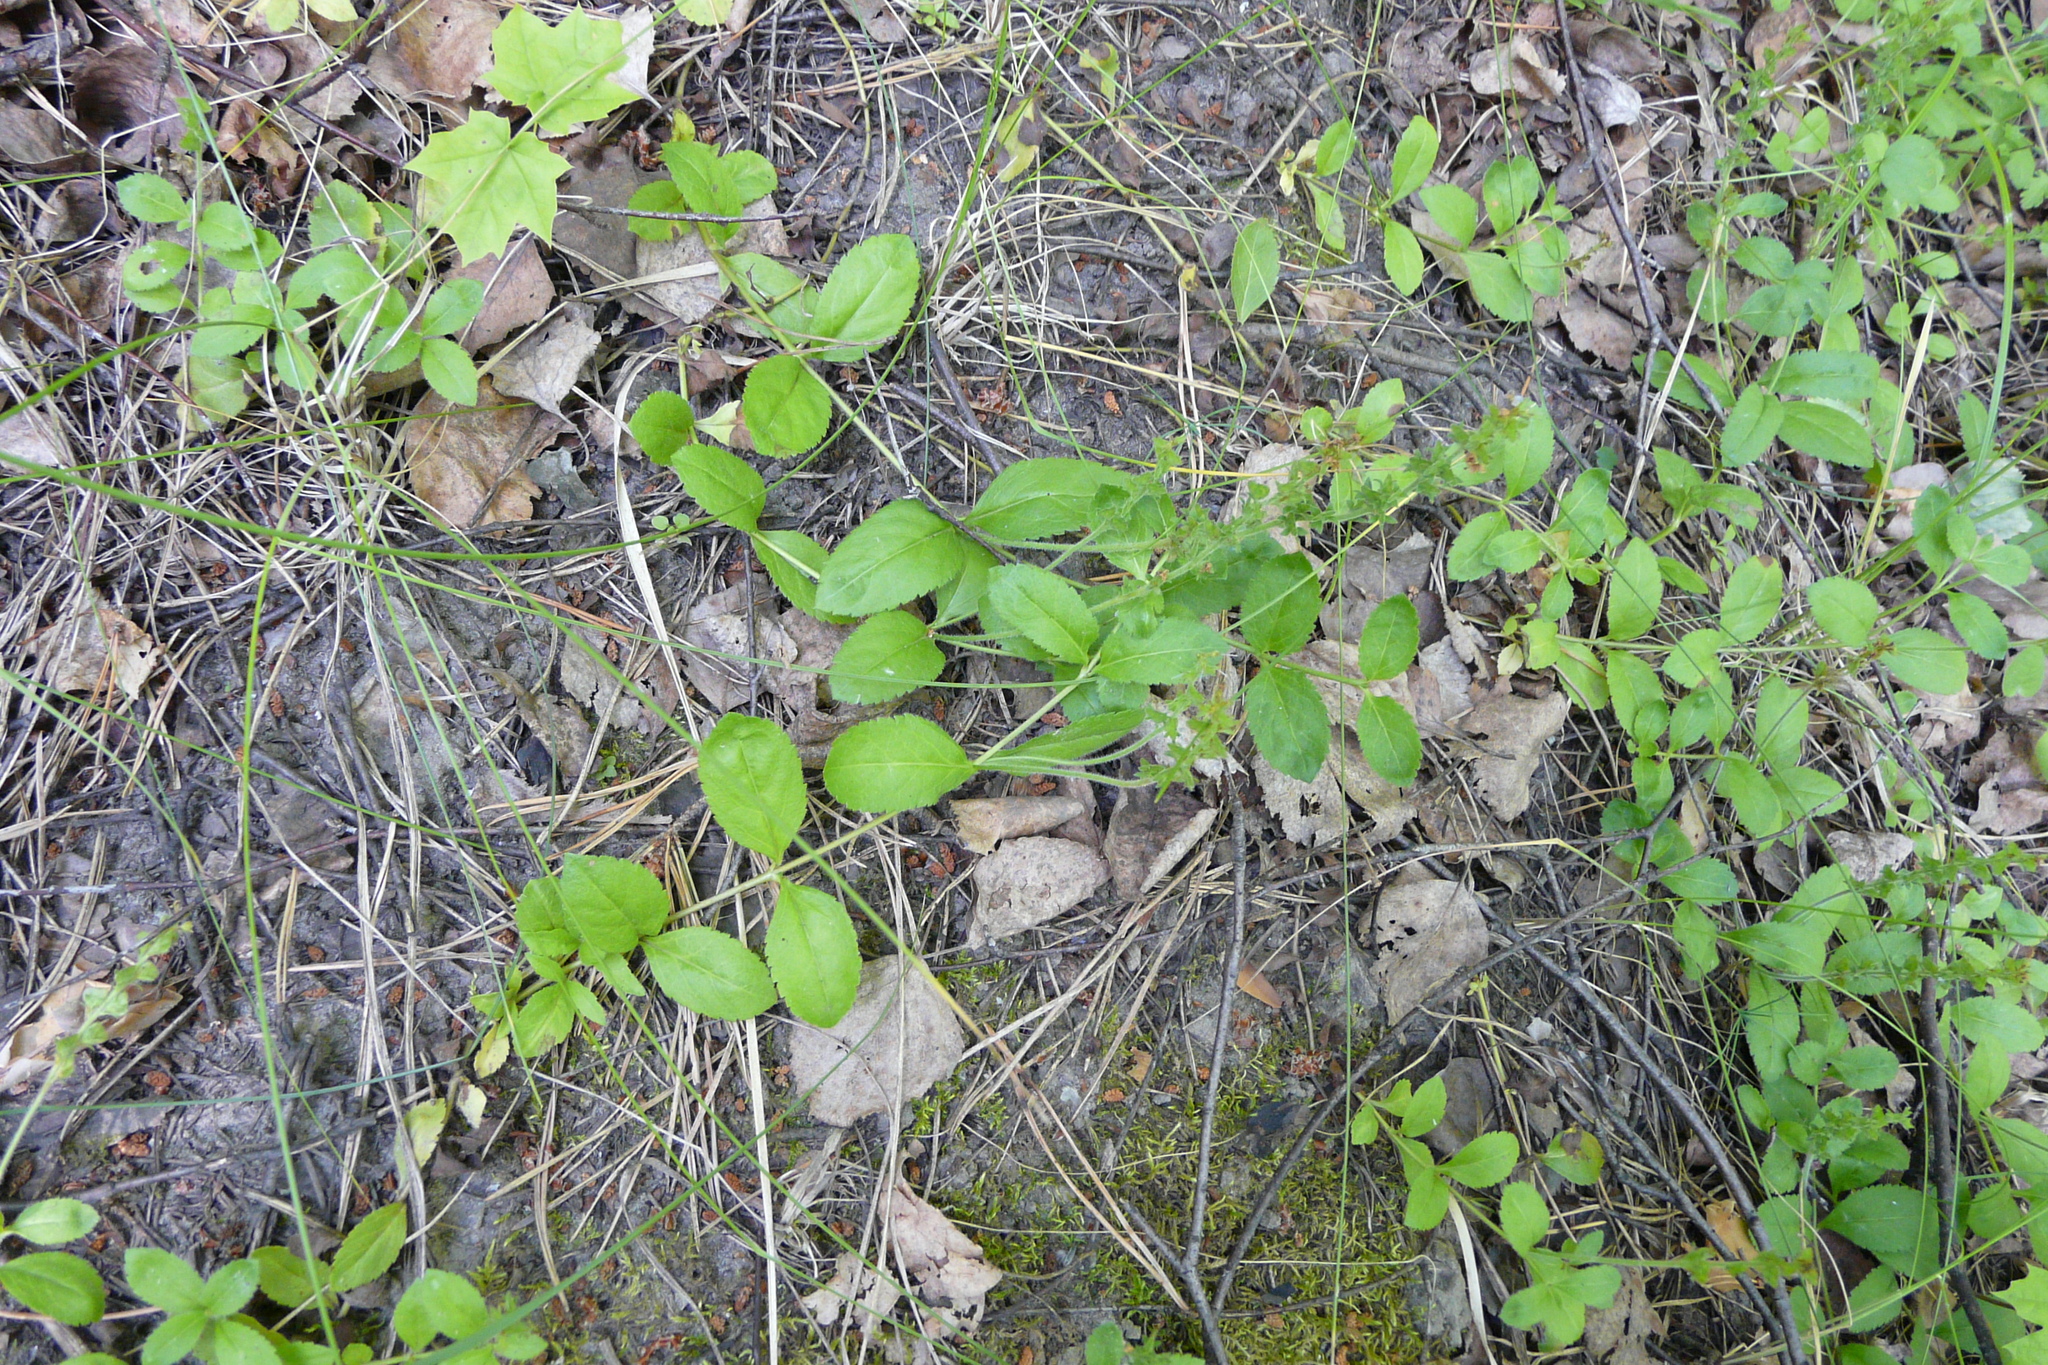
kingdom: Plantae
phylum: Tracheophyta
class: Magnoliopsida
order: Lamiales
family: Plantaginaceae
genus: Veronica
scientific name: Veronica officinalis
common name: Common speedwell
